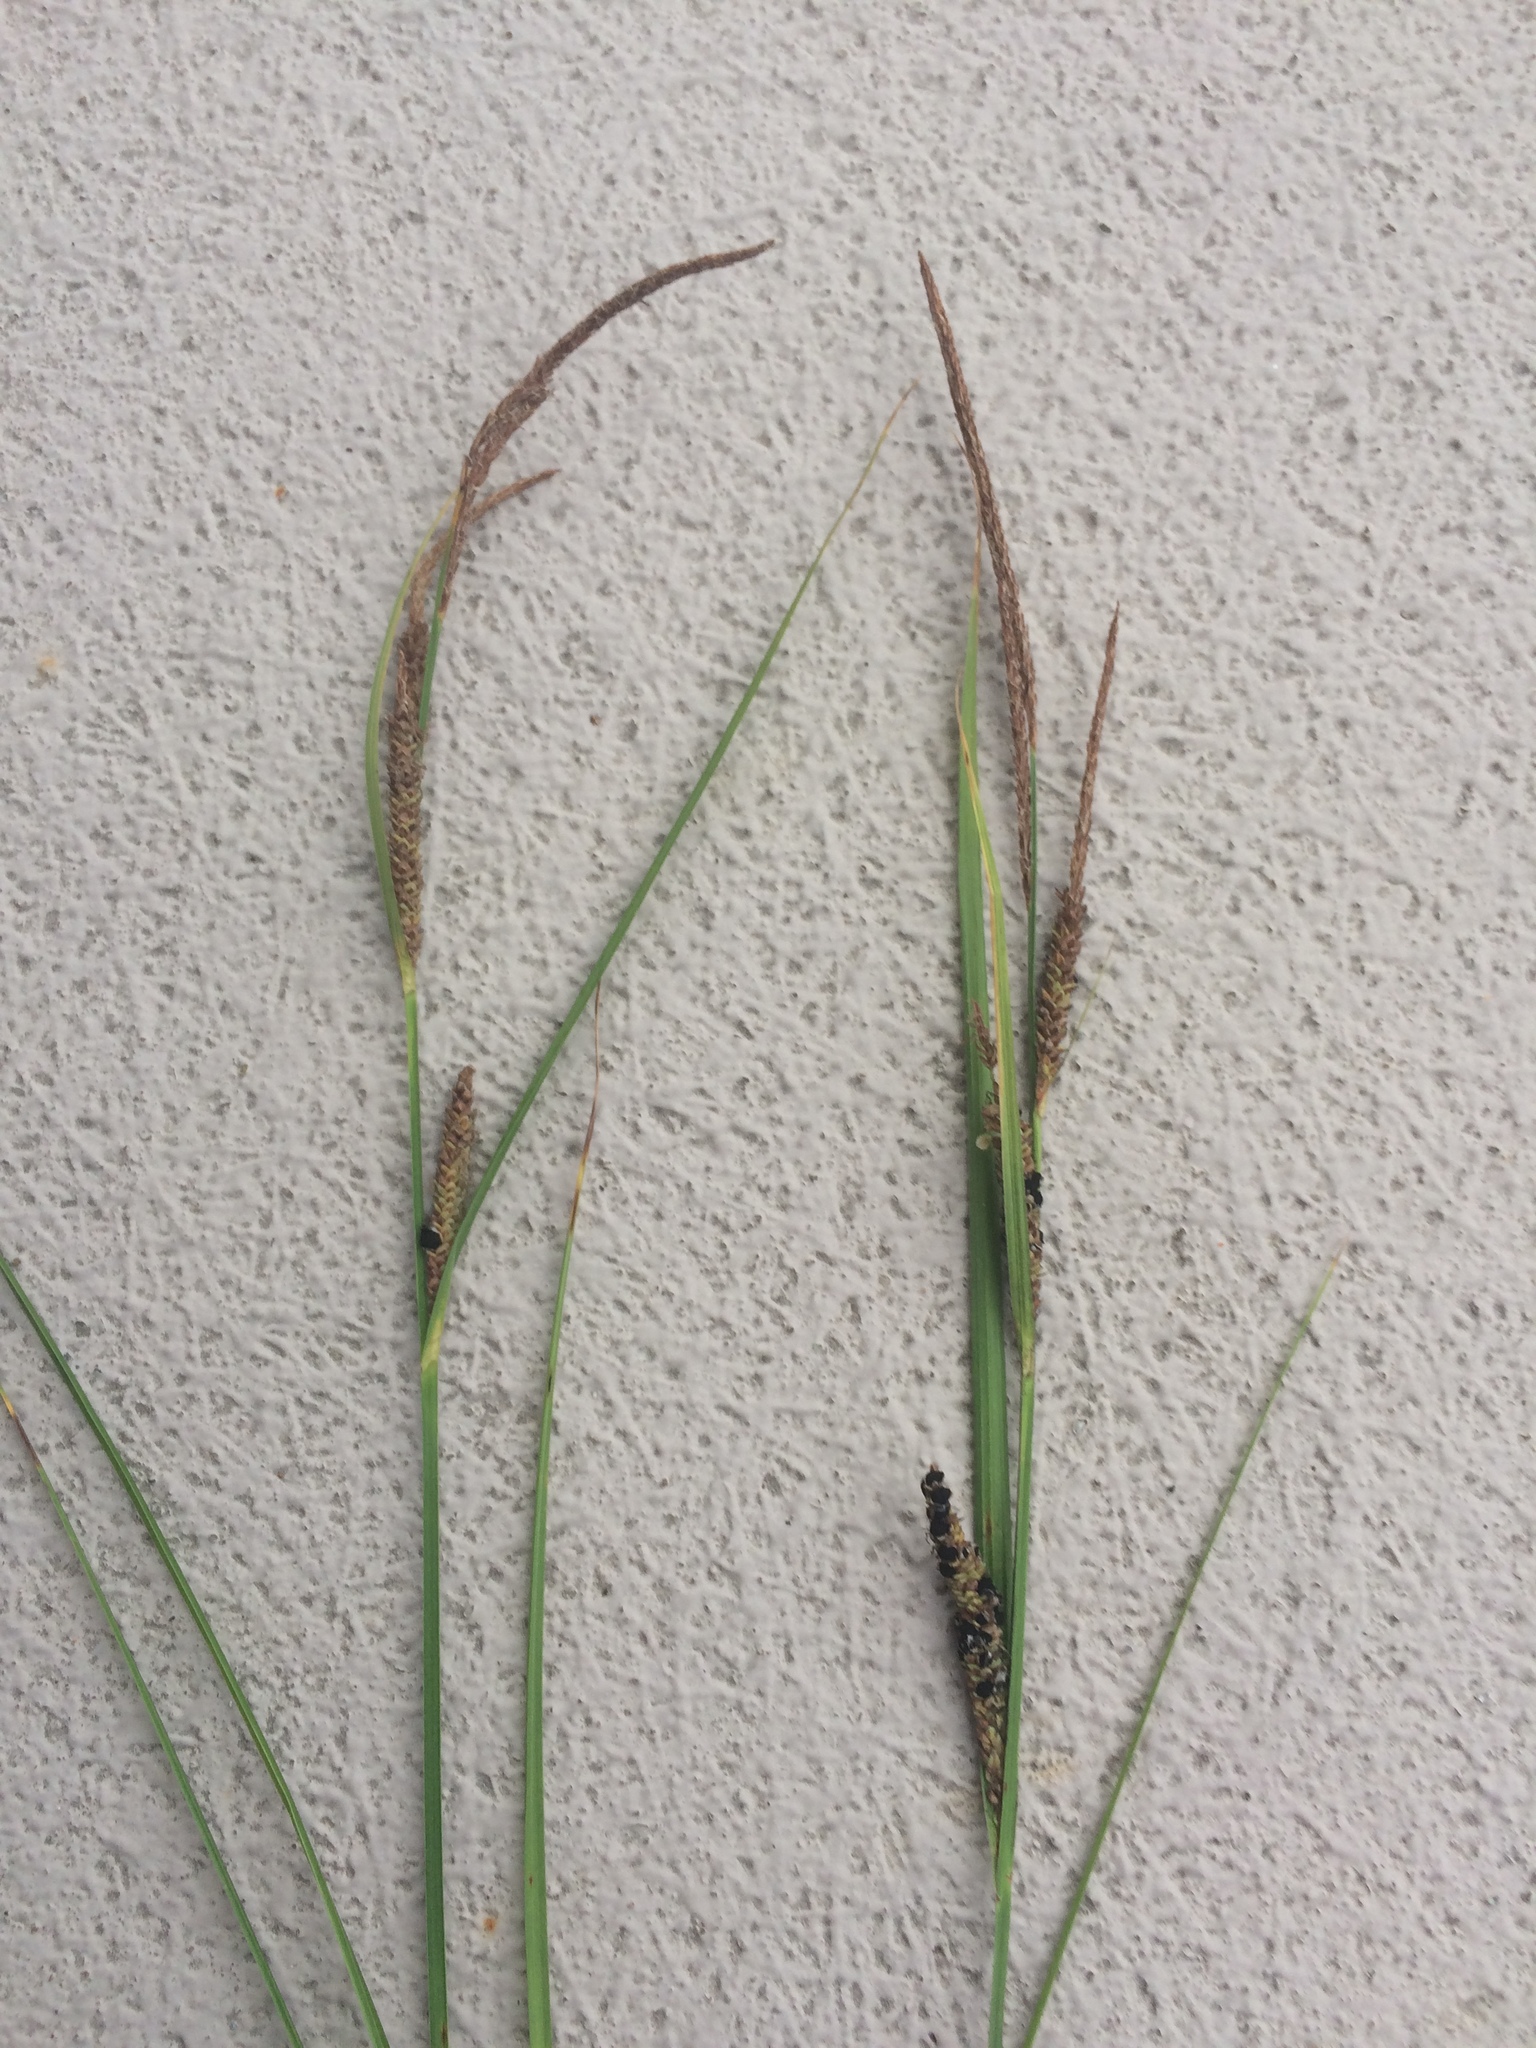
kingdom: Plantae
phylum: Tracheophyta
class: Liliopsida
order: Poales
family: Cyperaceae
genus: Carex
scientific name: Carex stricta
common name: Hummock sedge
